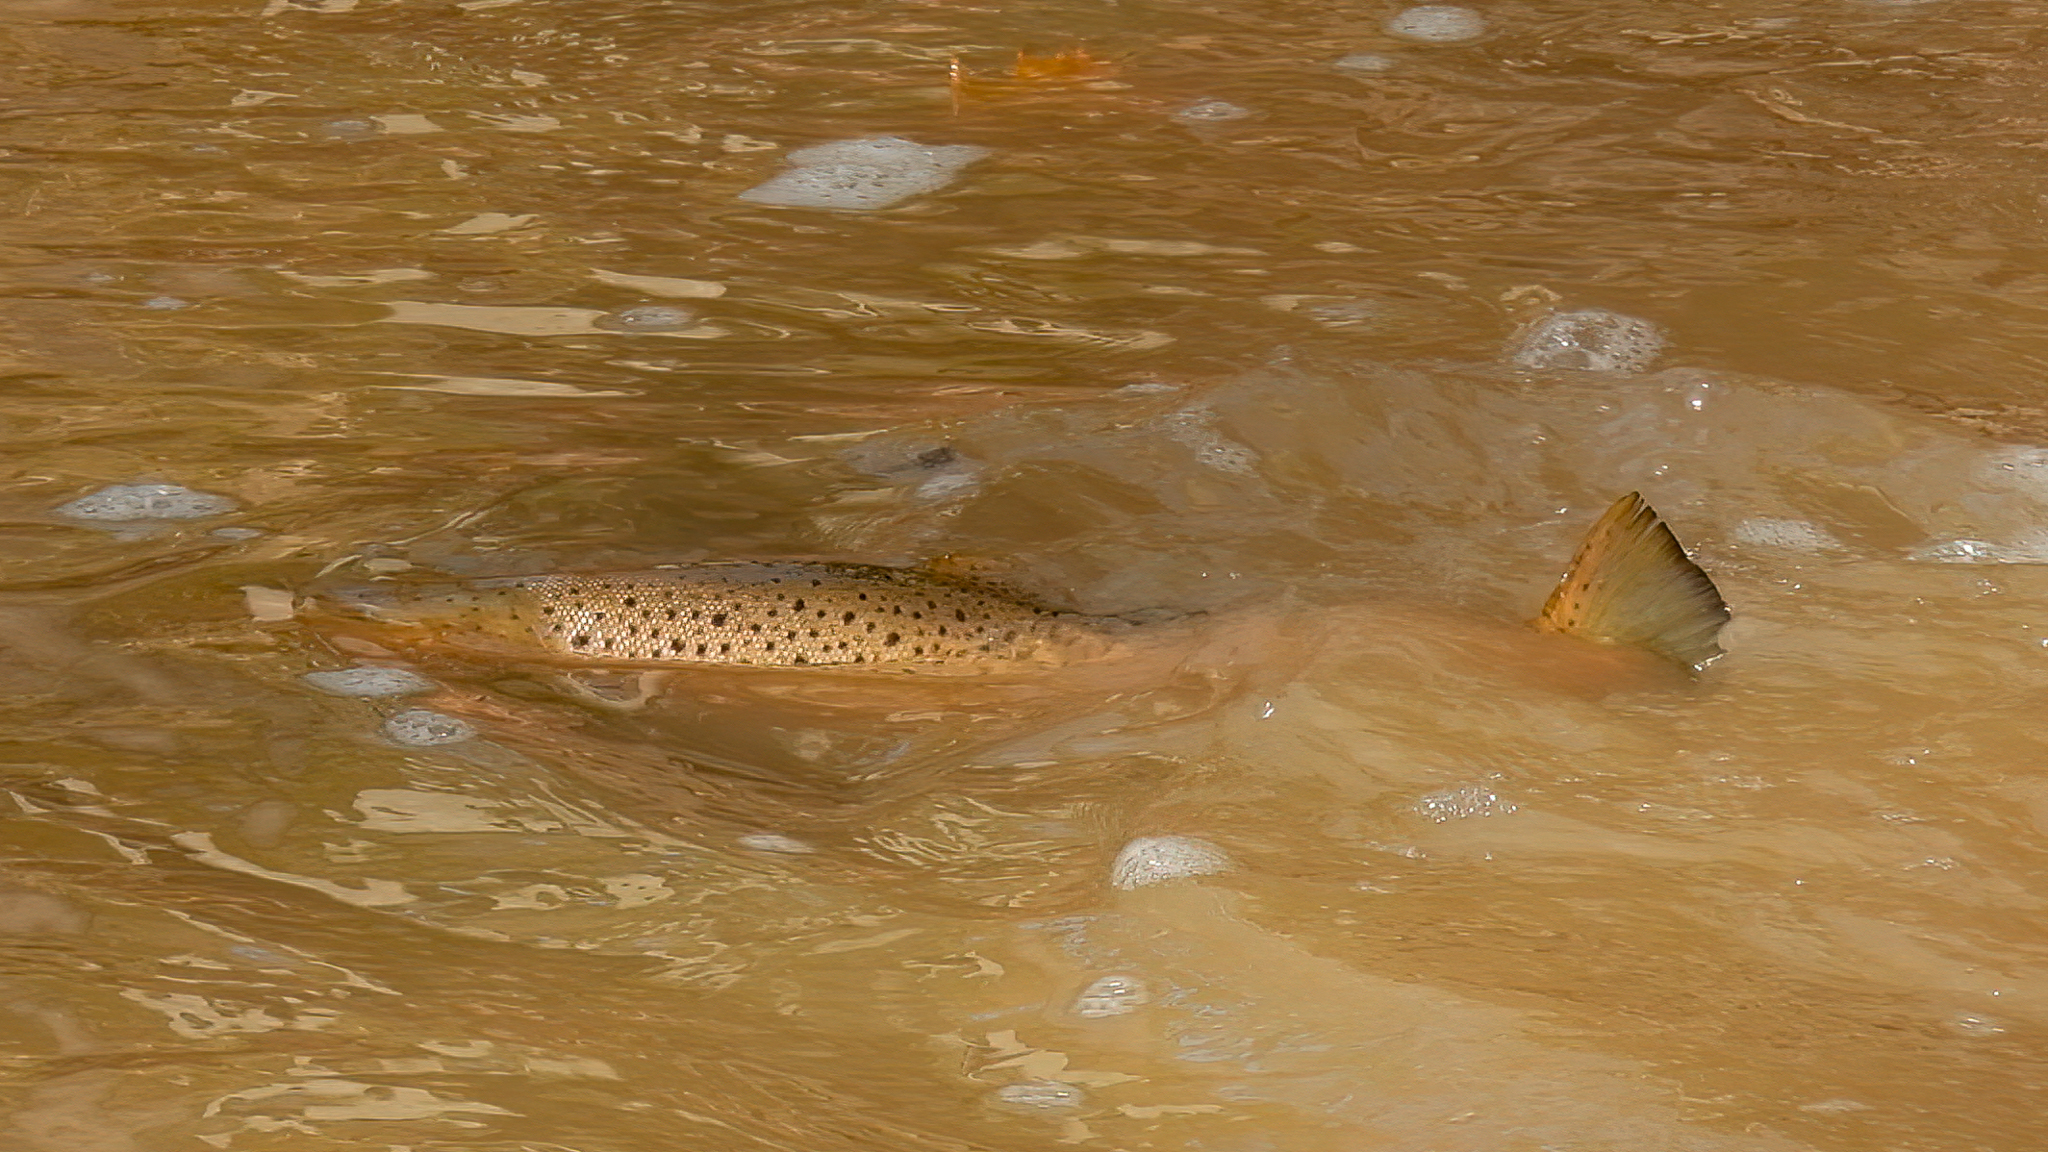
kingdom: Animalia
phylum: Chordata
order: Salmoniformes
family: Salmonidae
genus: Salmo
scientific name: Salmo trutta
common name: Brown trout
